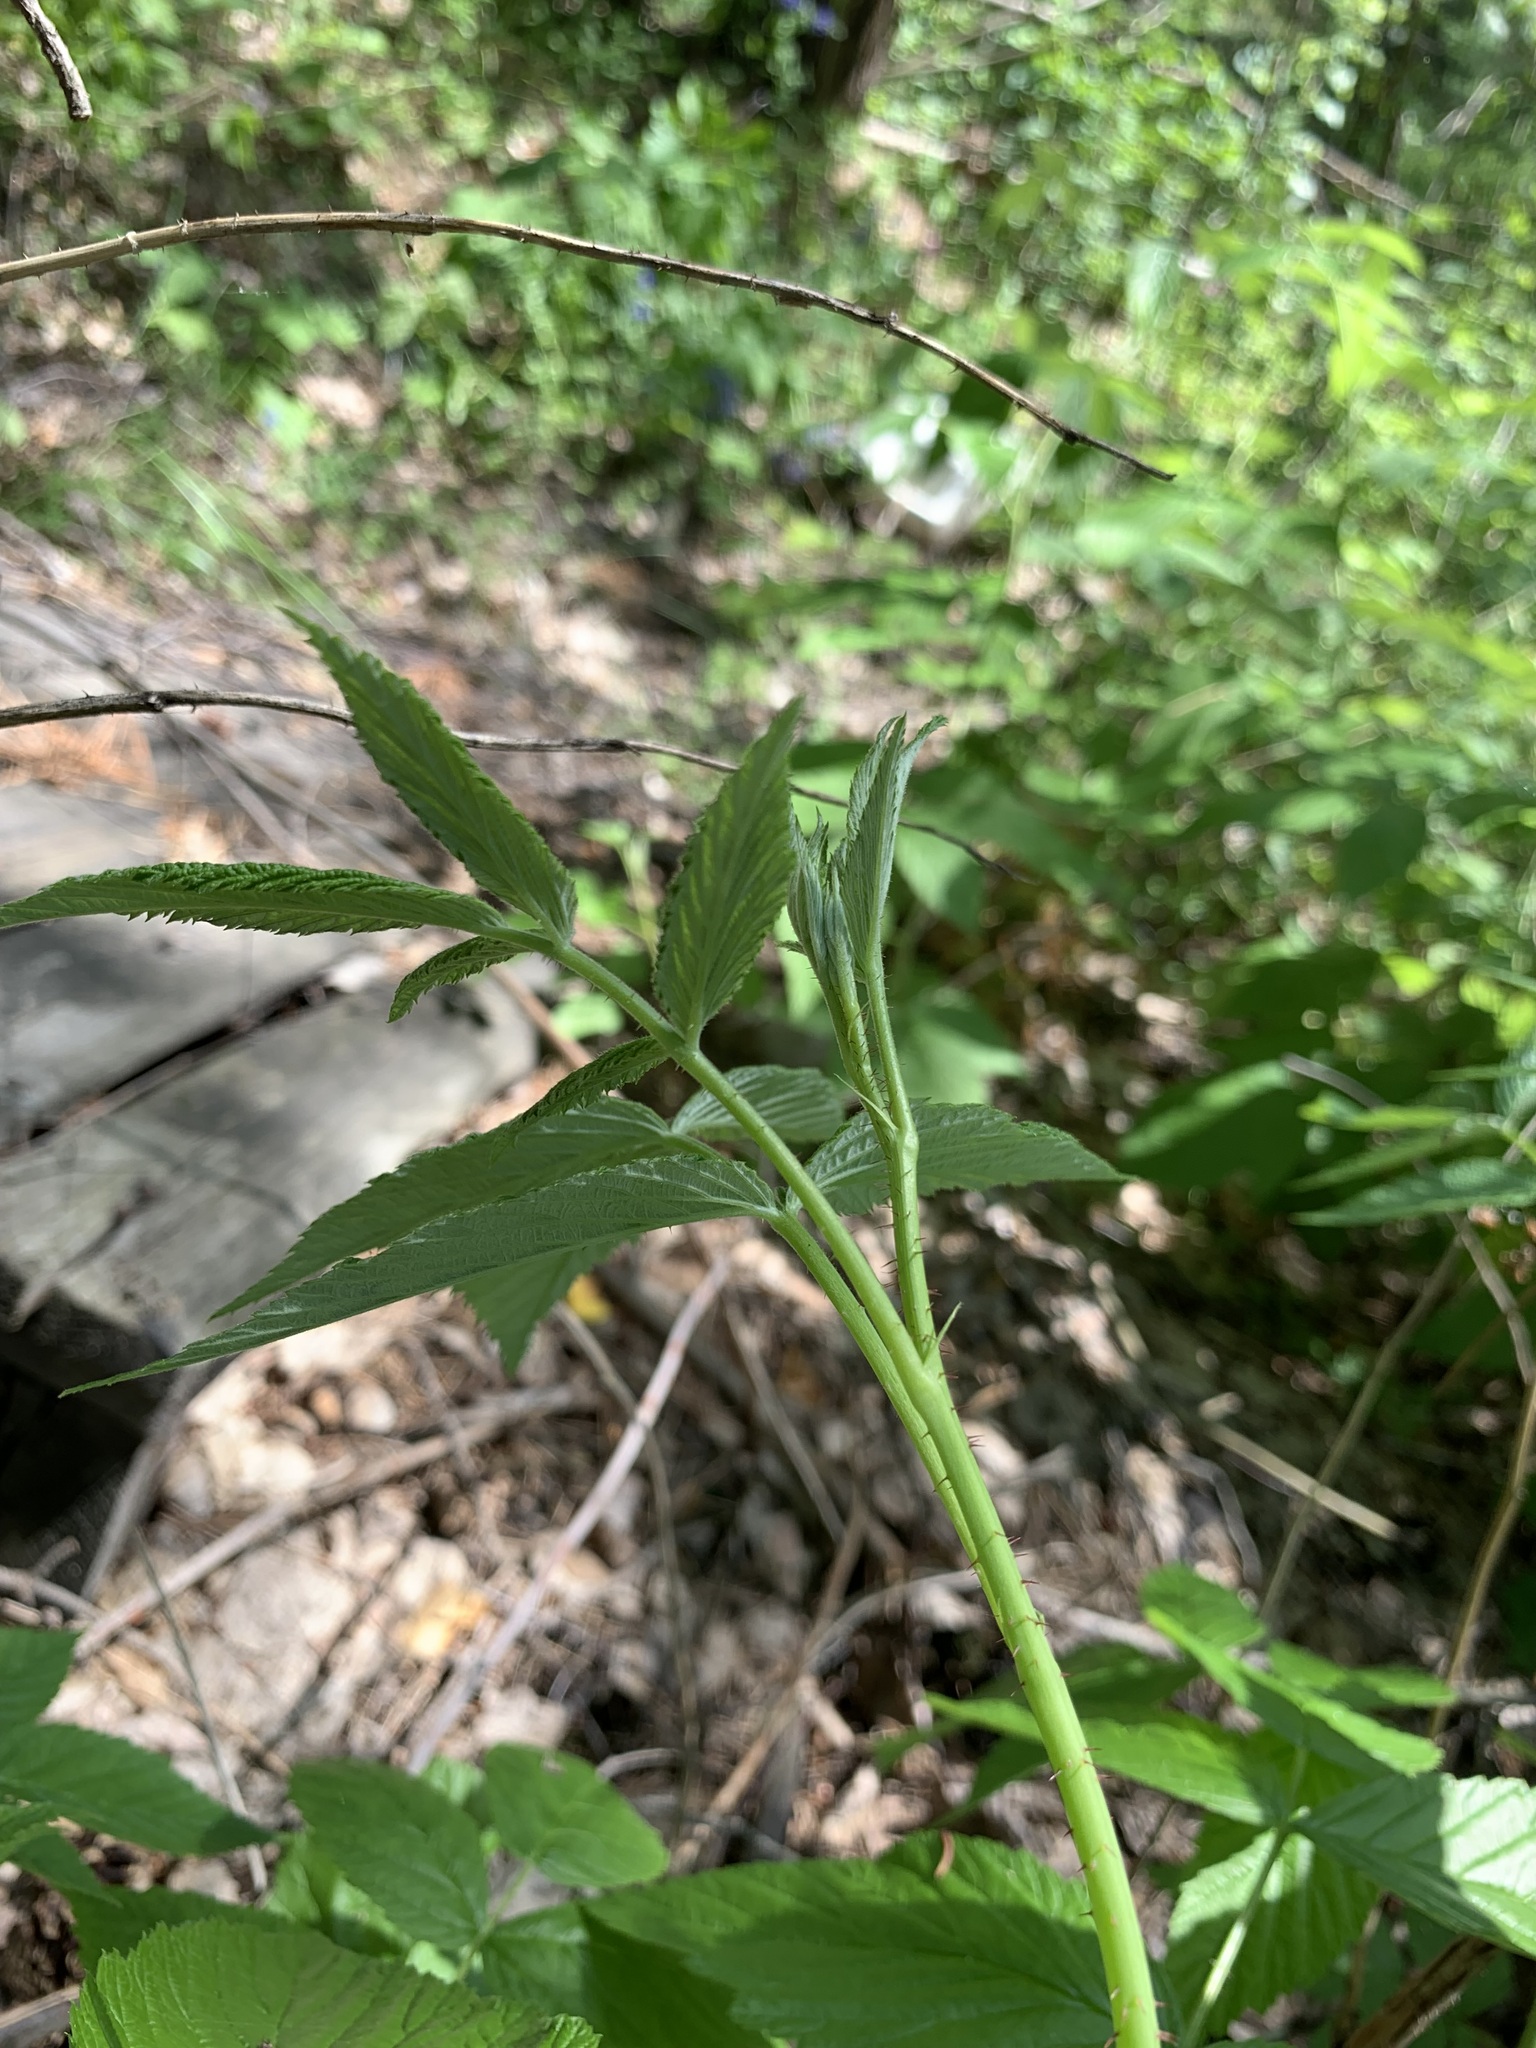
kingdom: Plantae
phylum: Tracheophyta
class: Magnoliopsida
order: Rosales
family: Rosaceae
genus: Rubus
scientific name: Rubus idaeus
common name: Raspberry
